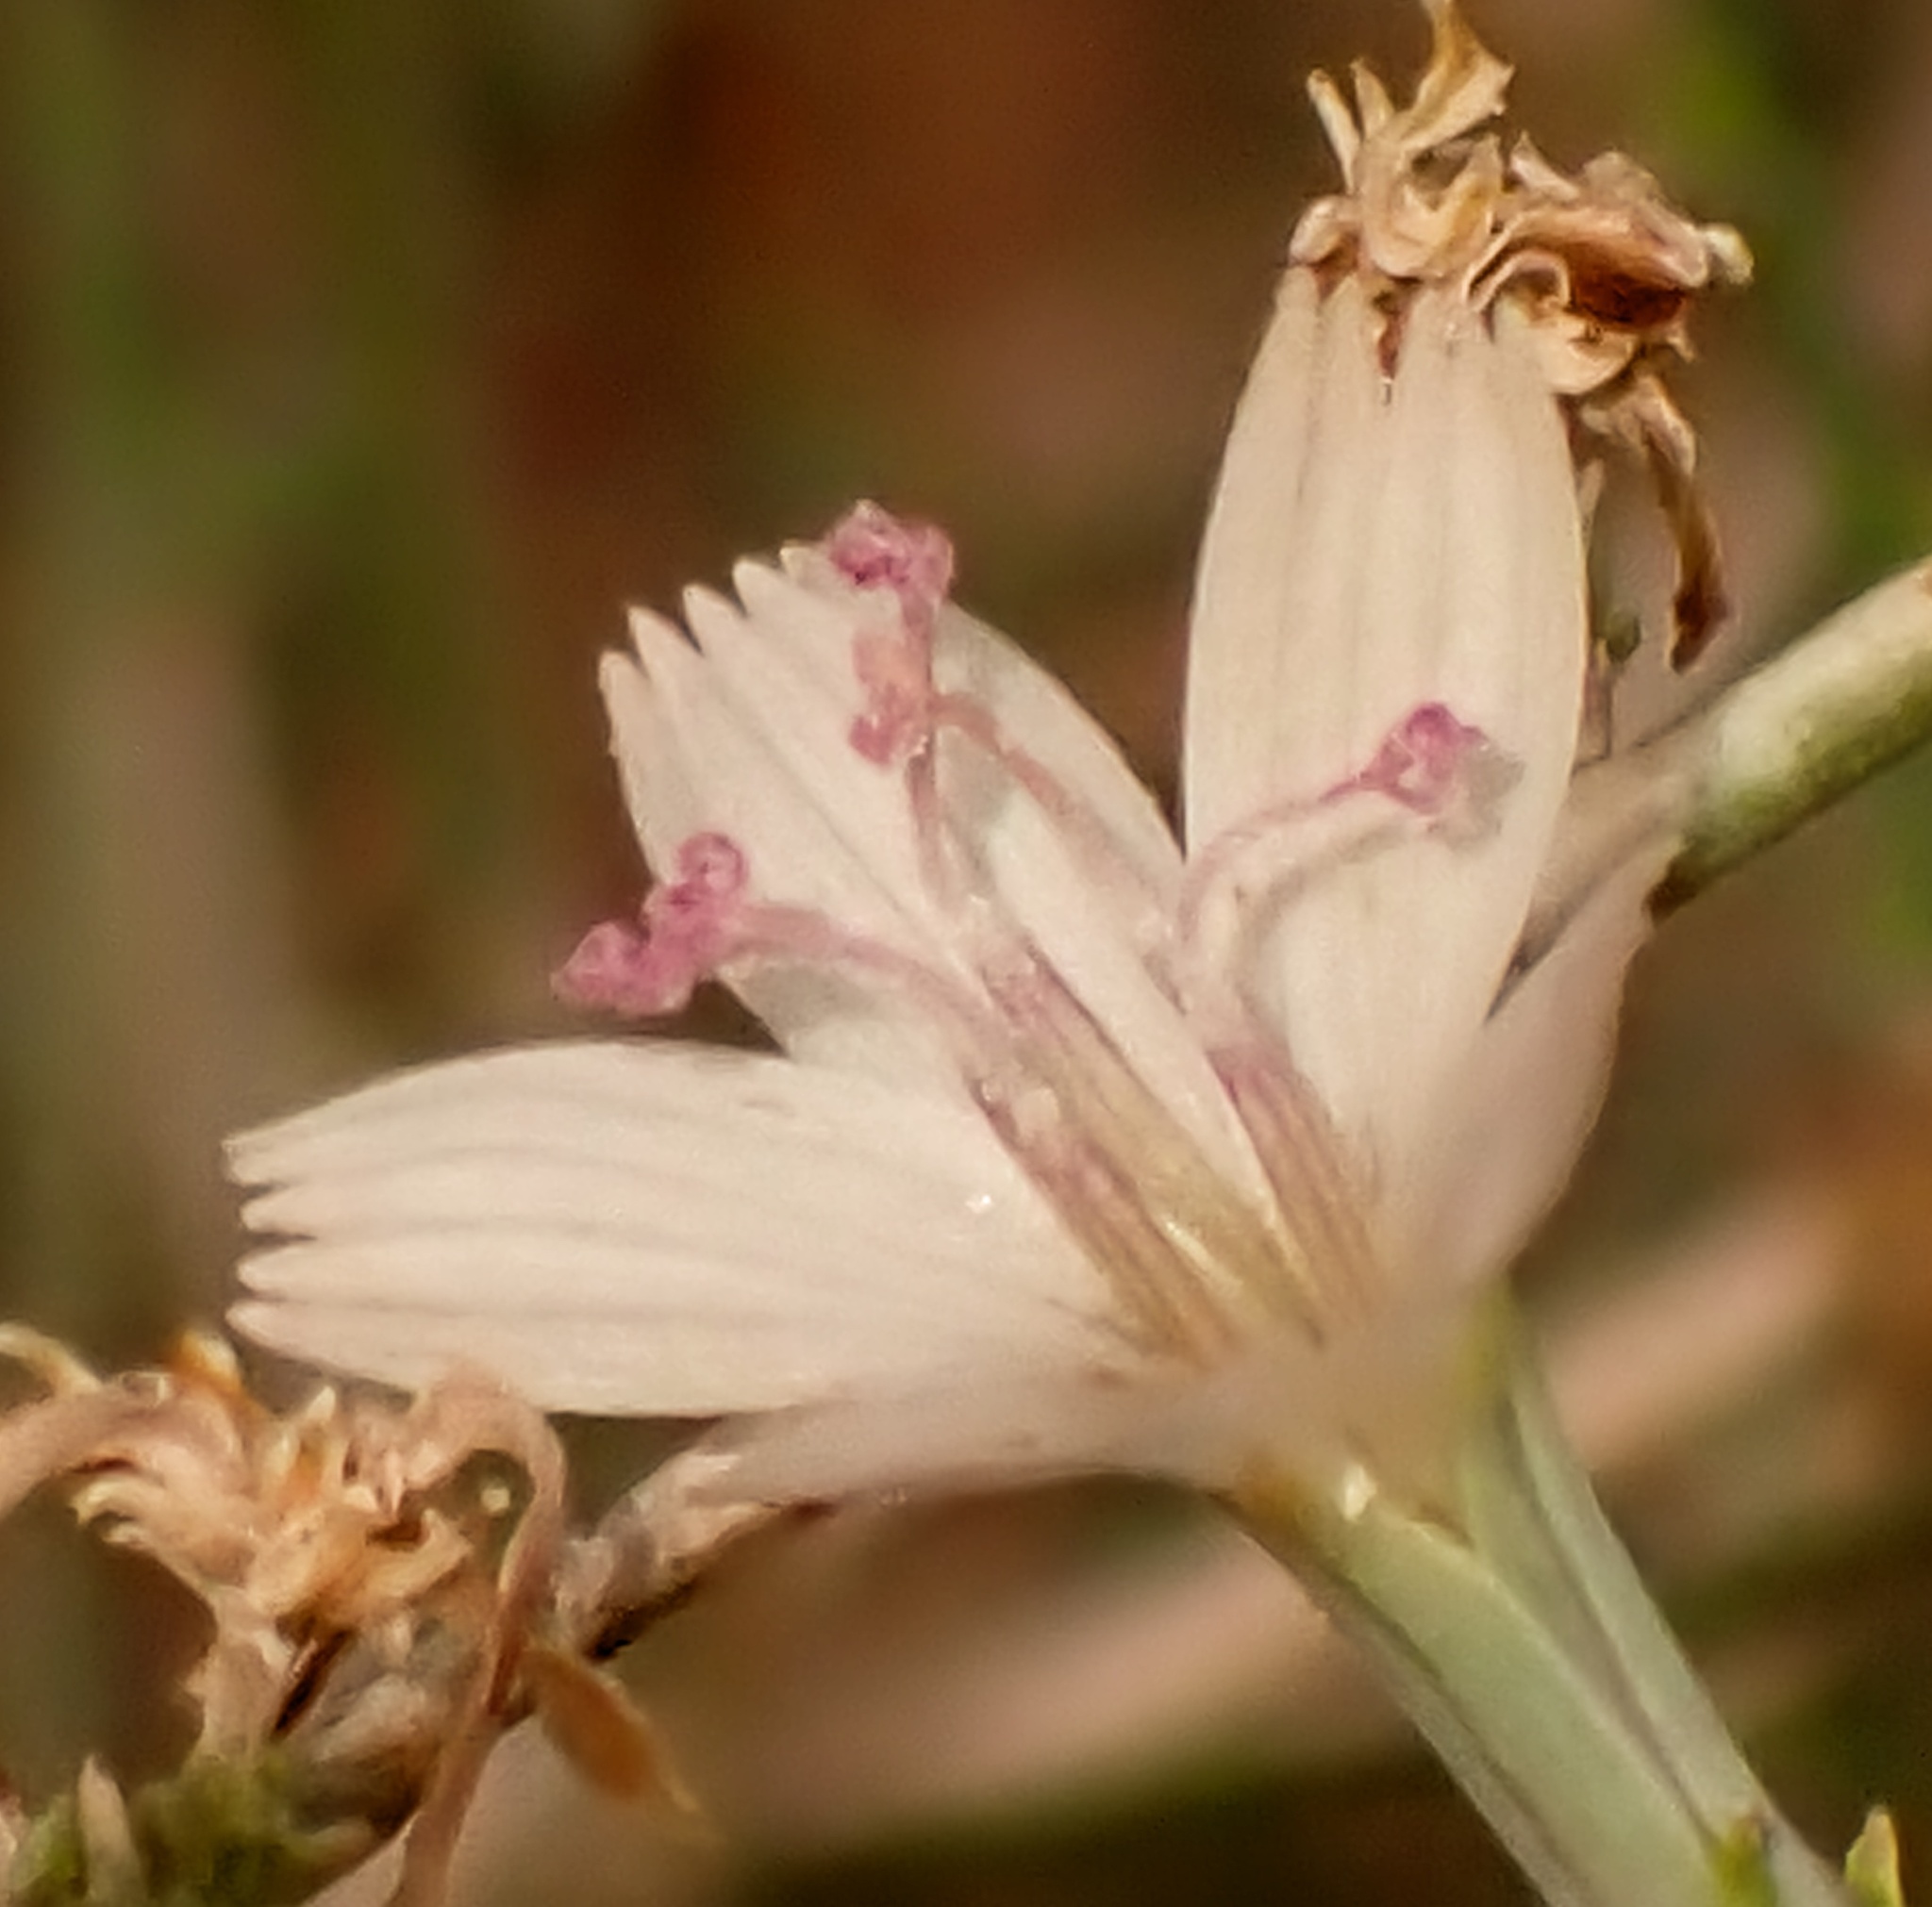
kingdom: Plantae
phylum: Tracheophyta
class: Magnoliopsida
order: Asterales
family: Asteraceae
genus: Stephanomeria
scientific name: Stephanomeria pauciflora
